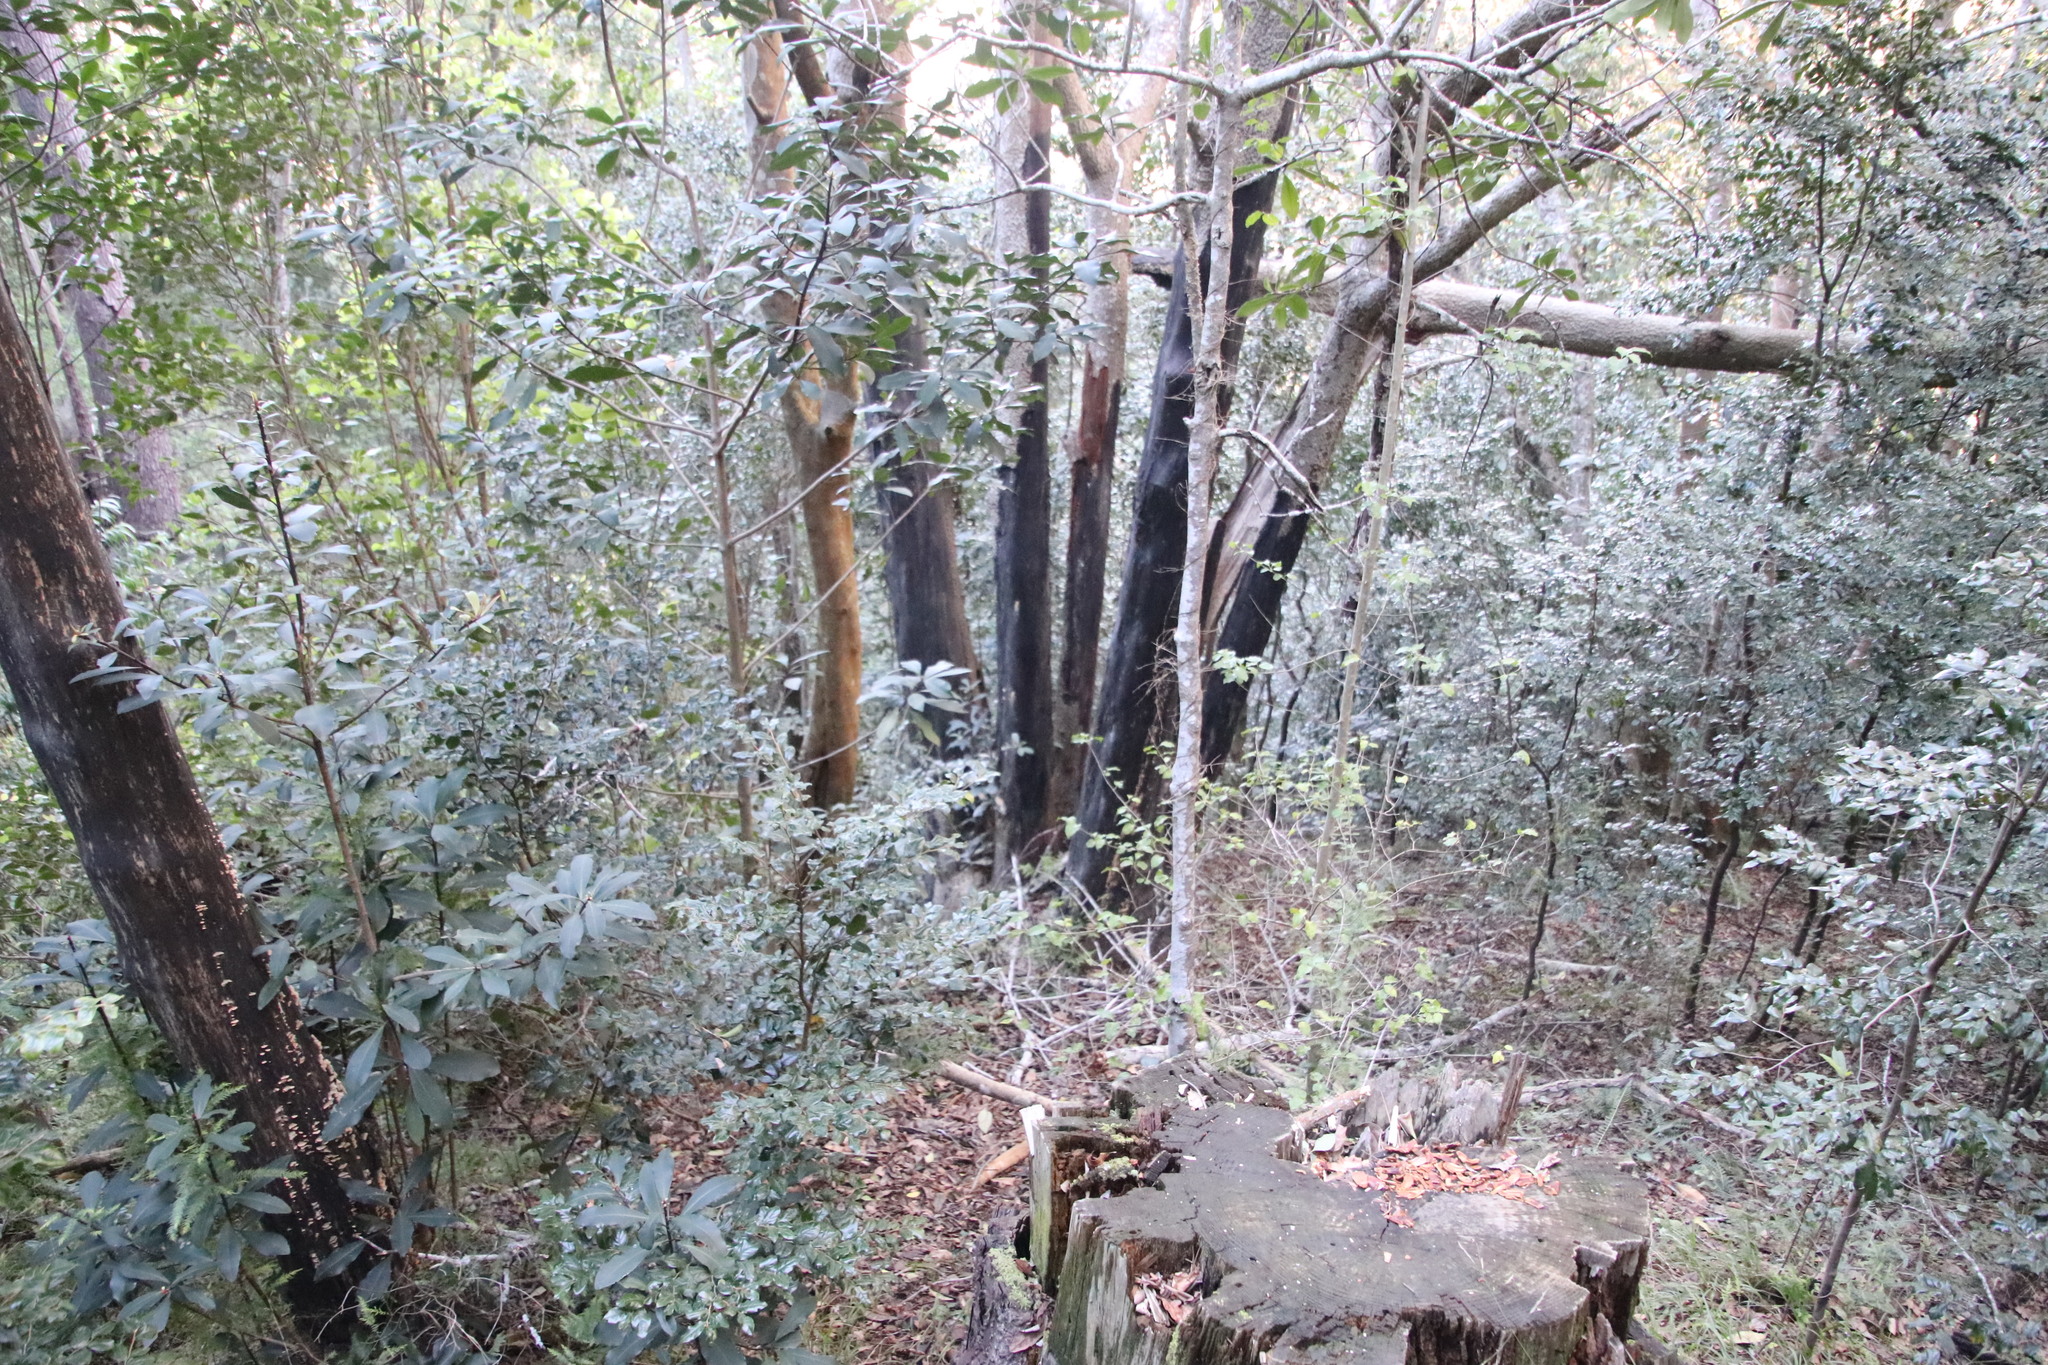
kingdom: Plantae
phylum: Tracheophyta
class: Magnoliopsida
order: Ericales
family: Primulaceae
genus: Myrsine
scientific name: Myrsine melanophloeos
